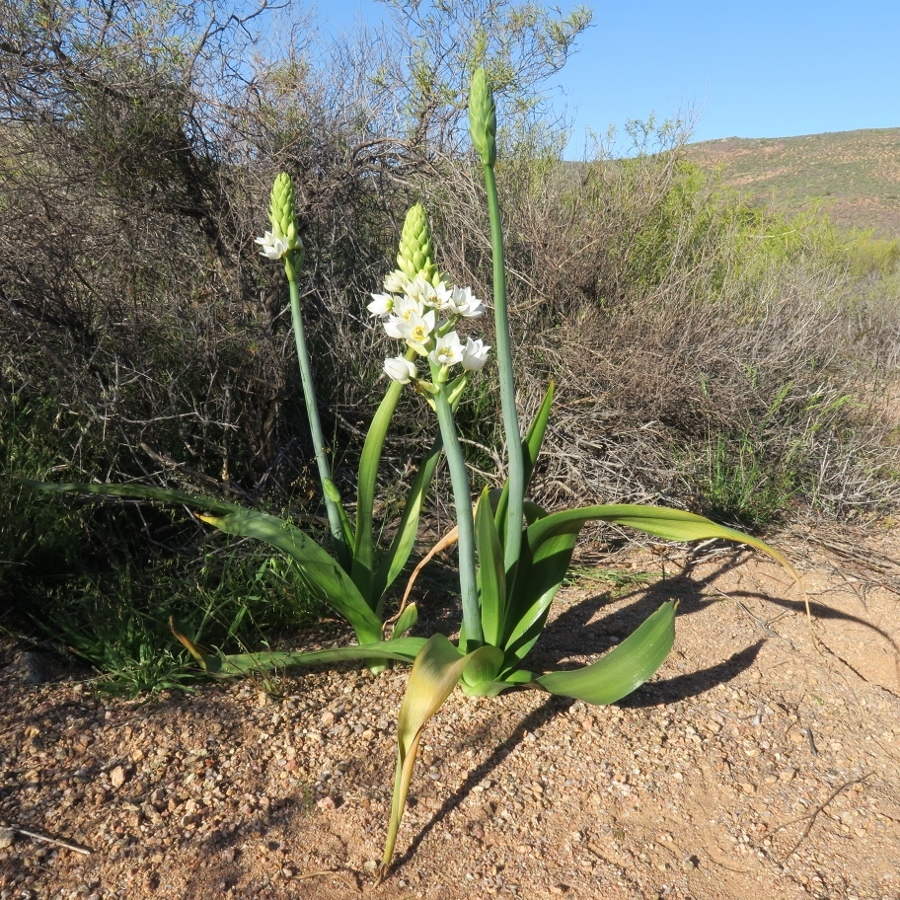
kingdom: Plantae
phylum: Tracheophyta
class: Liliopsida
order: Asparagales
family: Asparagaceae
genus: Ornithogalum
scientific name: Ornithogalum thyrsoides
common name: Chincherinchee
